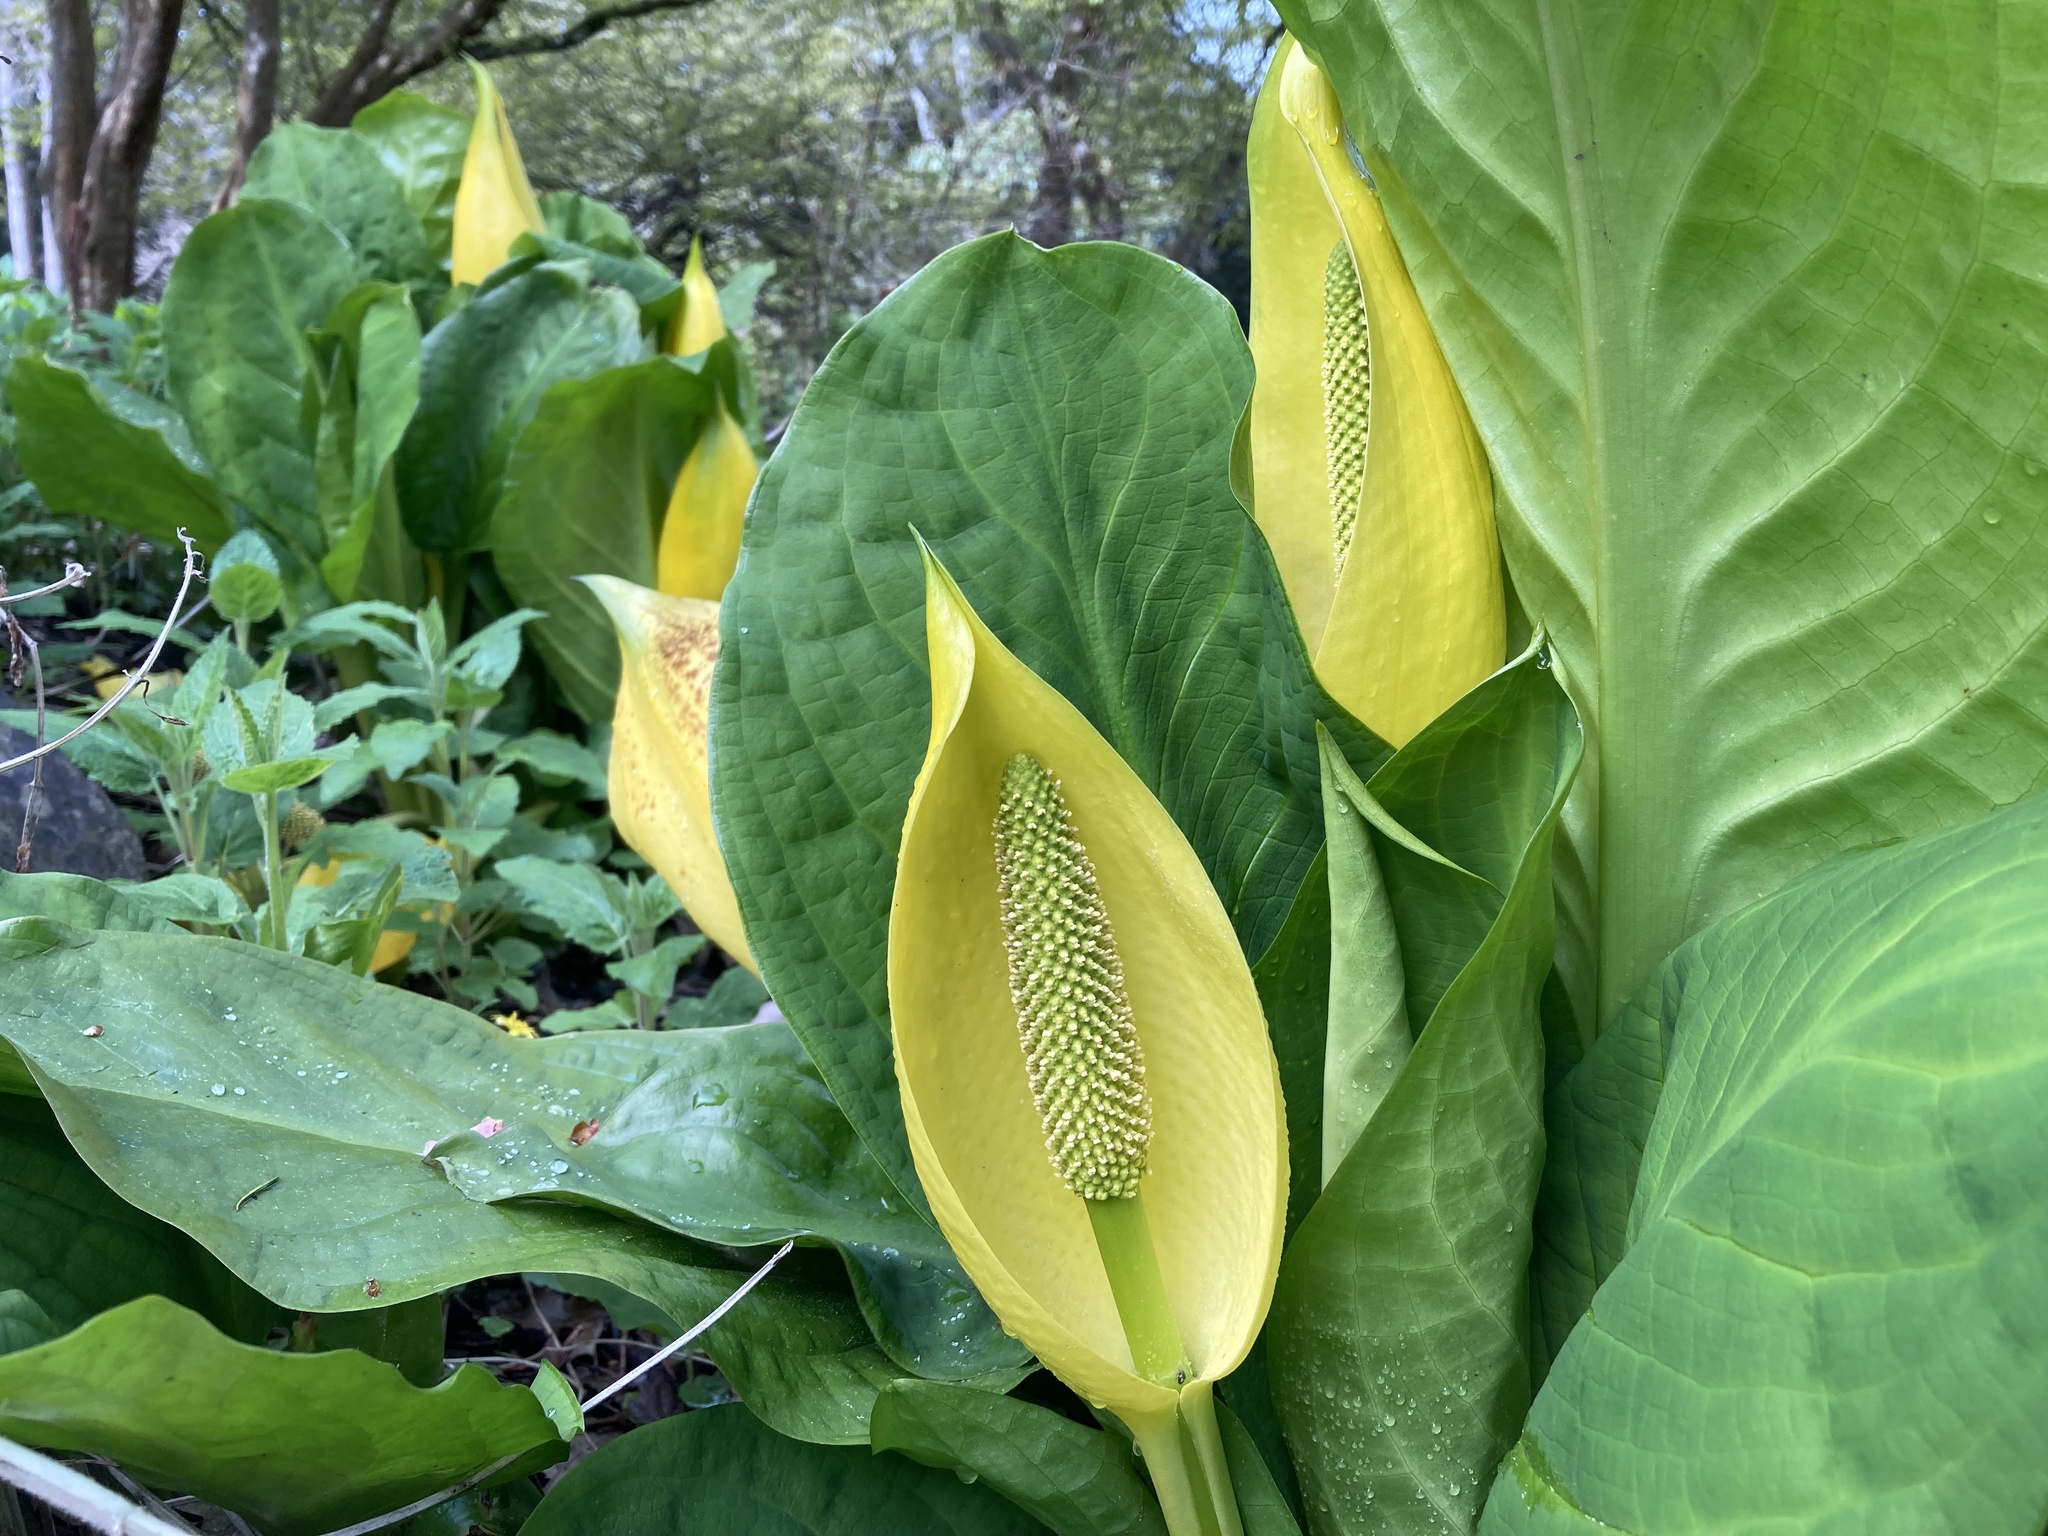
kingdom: Plantae
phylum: Tracheophyta
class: Liliopsida
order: Alismatales
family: Araceae
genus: Lysichiton
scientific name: Lysichiton americanus
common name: American skunk cabbage
